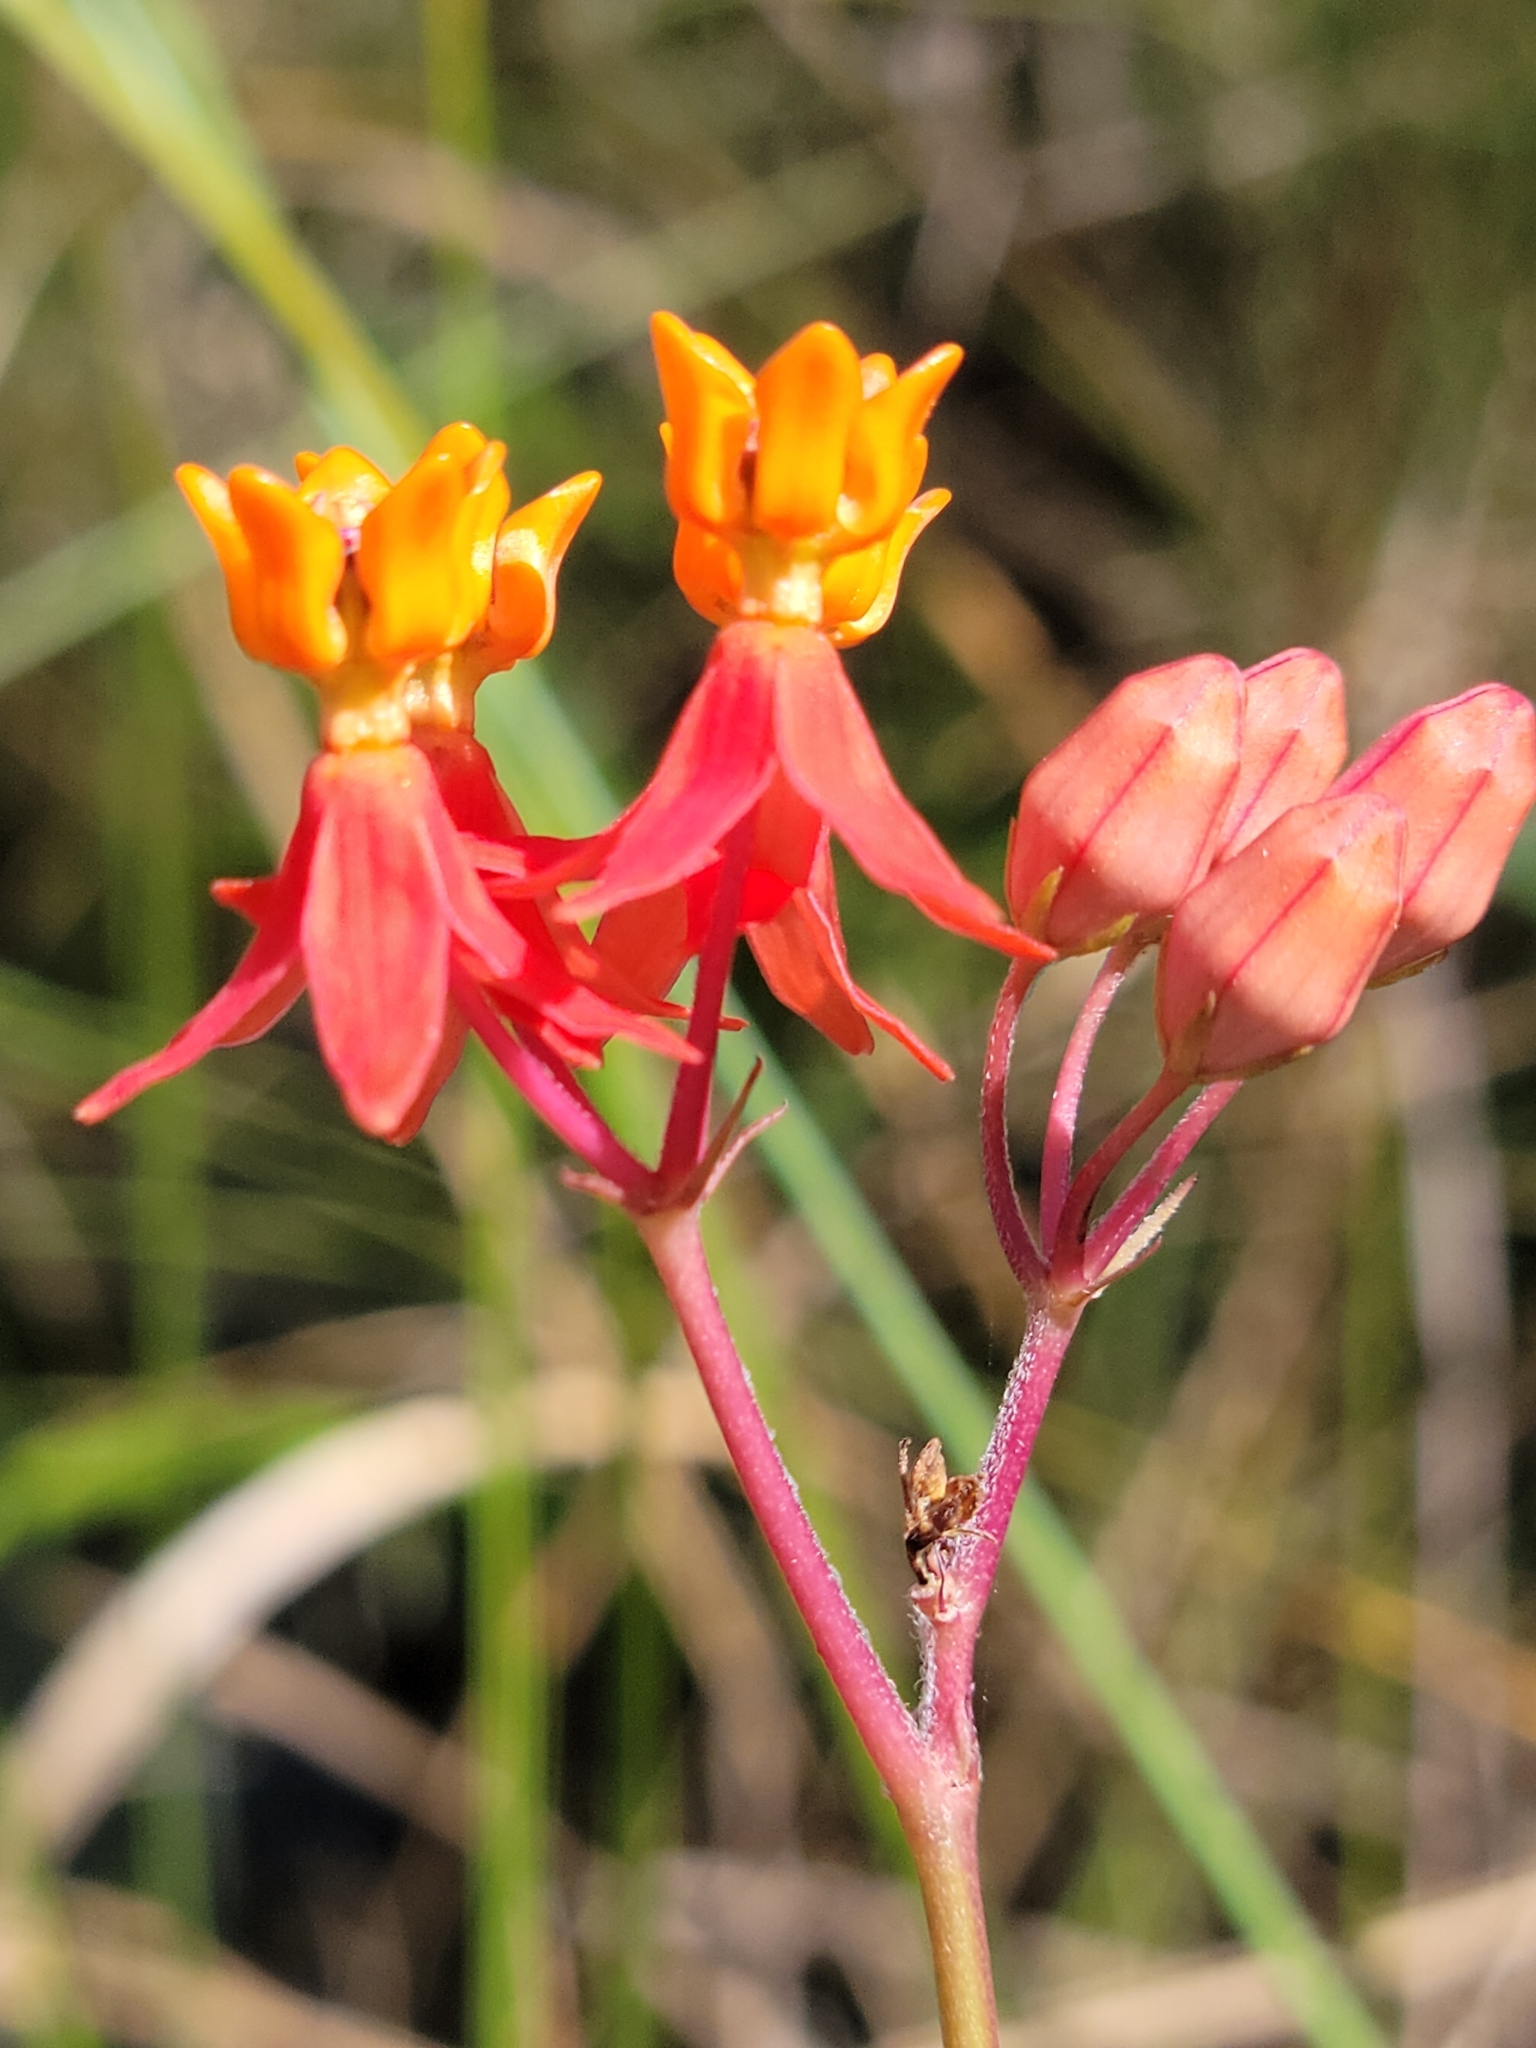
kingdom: Plantae
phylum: Tracheophyta
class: Magnoliopsida
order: Gentianales
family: Apocynaceae
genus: Asclepias
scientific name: Asclepias lanceolata
